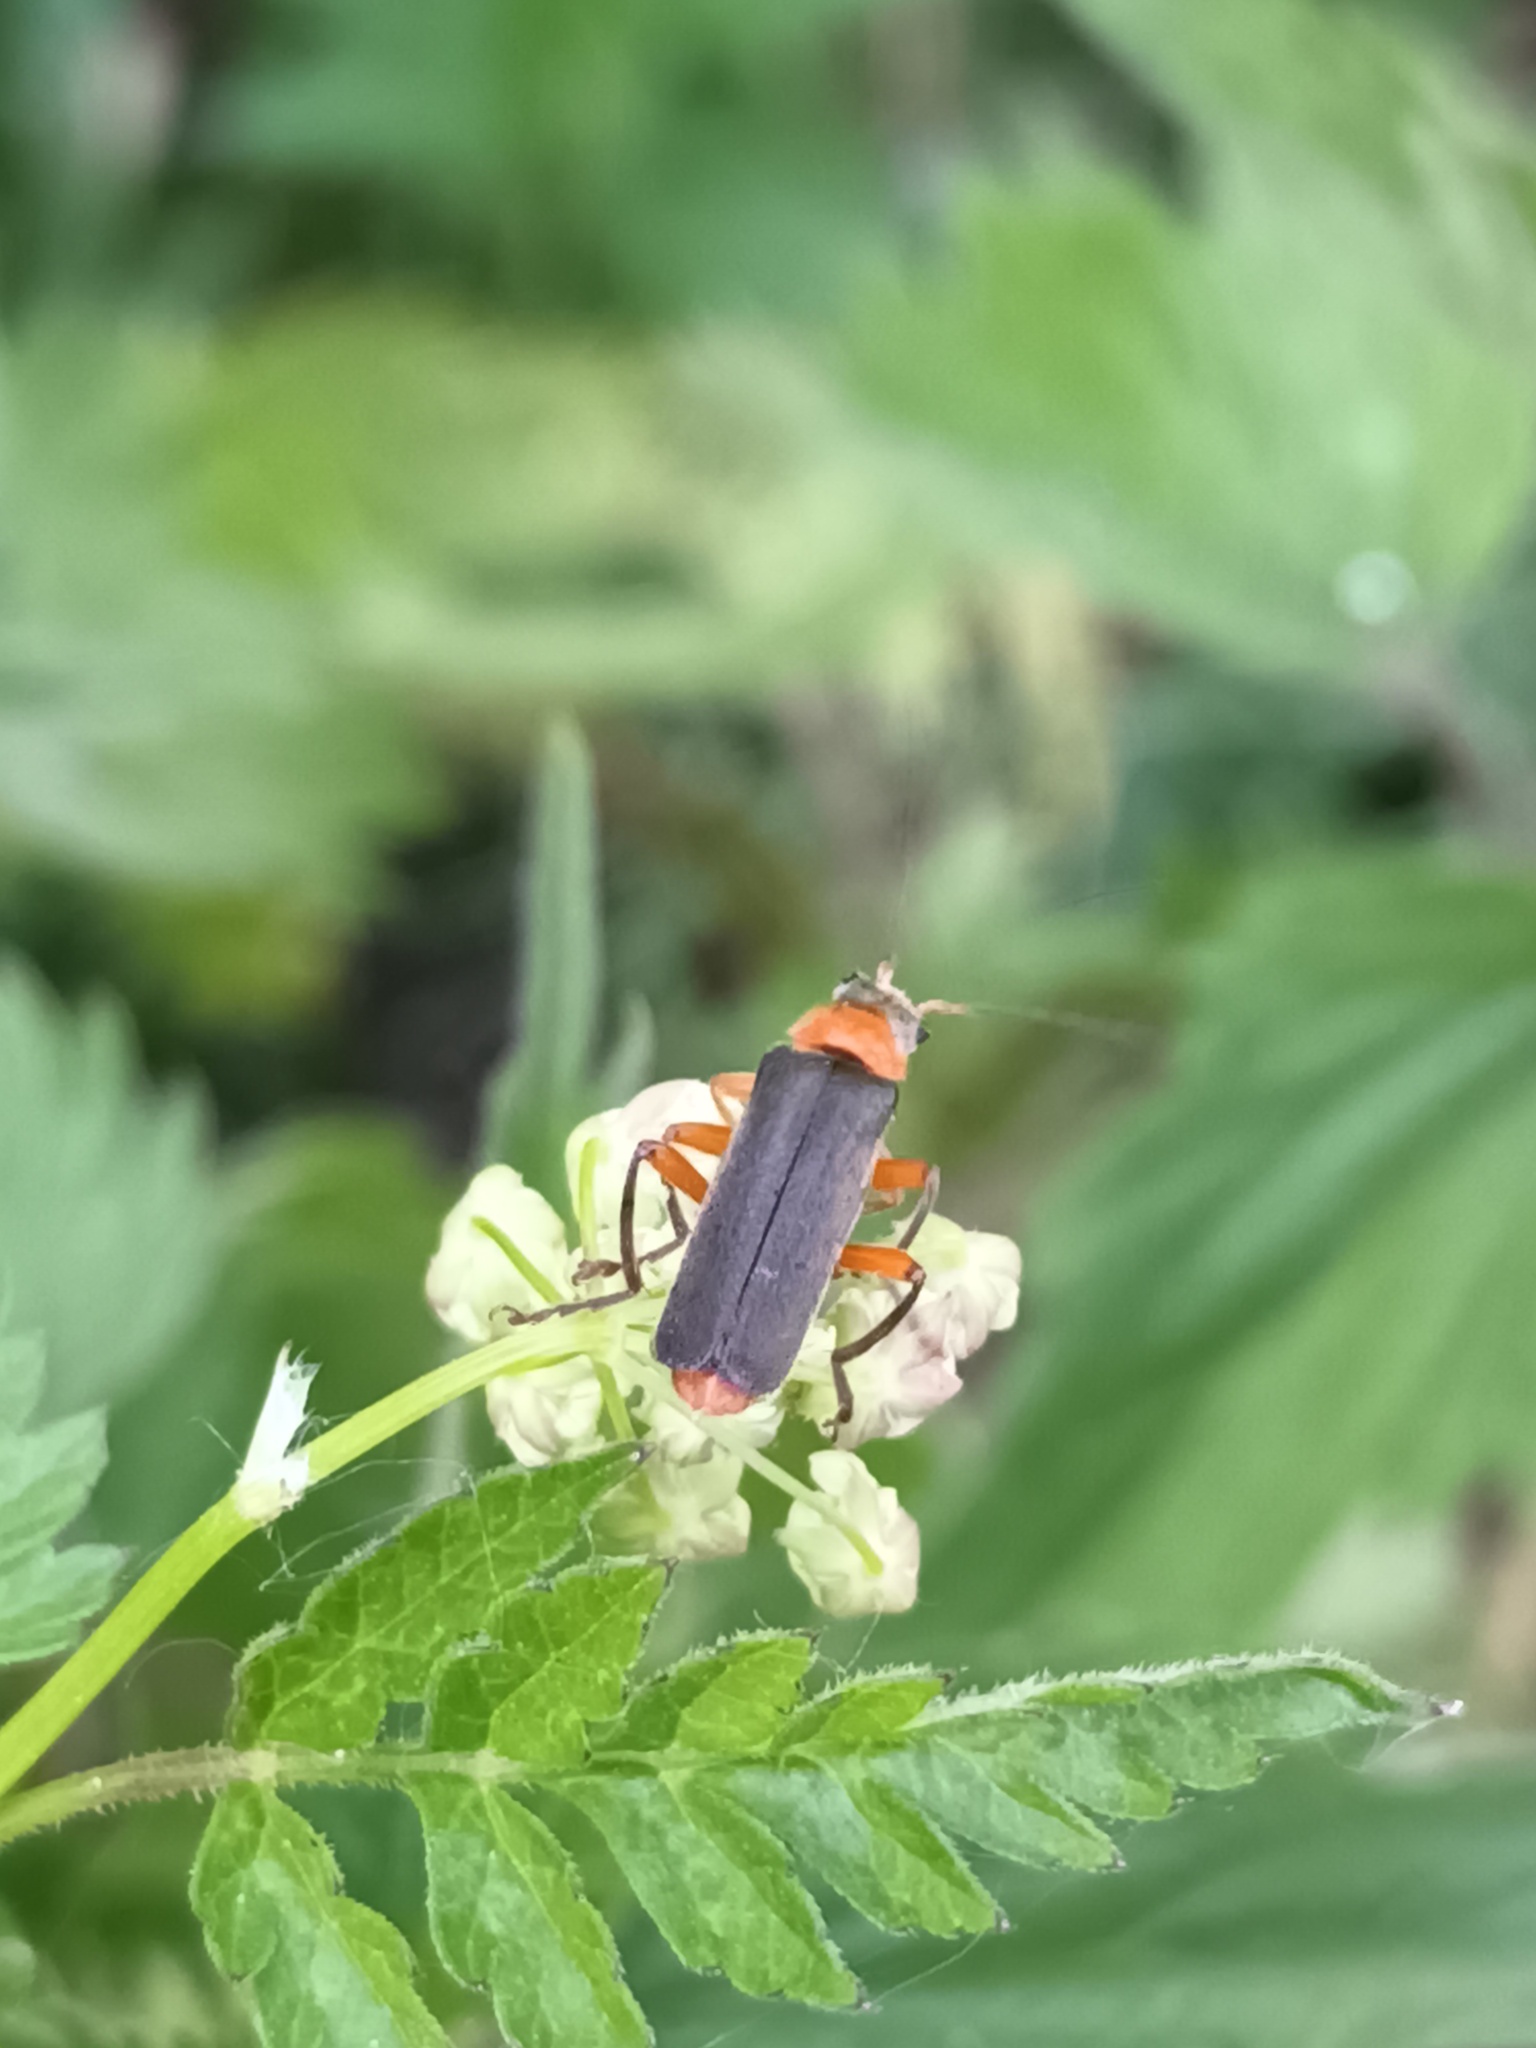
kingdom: Animalia
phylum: Arthropoda
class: Insecta
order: Coleoptera
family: Cantharidae
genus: Cantharis
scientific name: Cantharis pellucida
